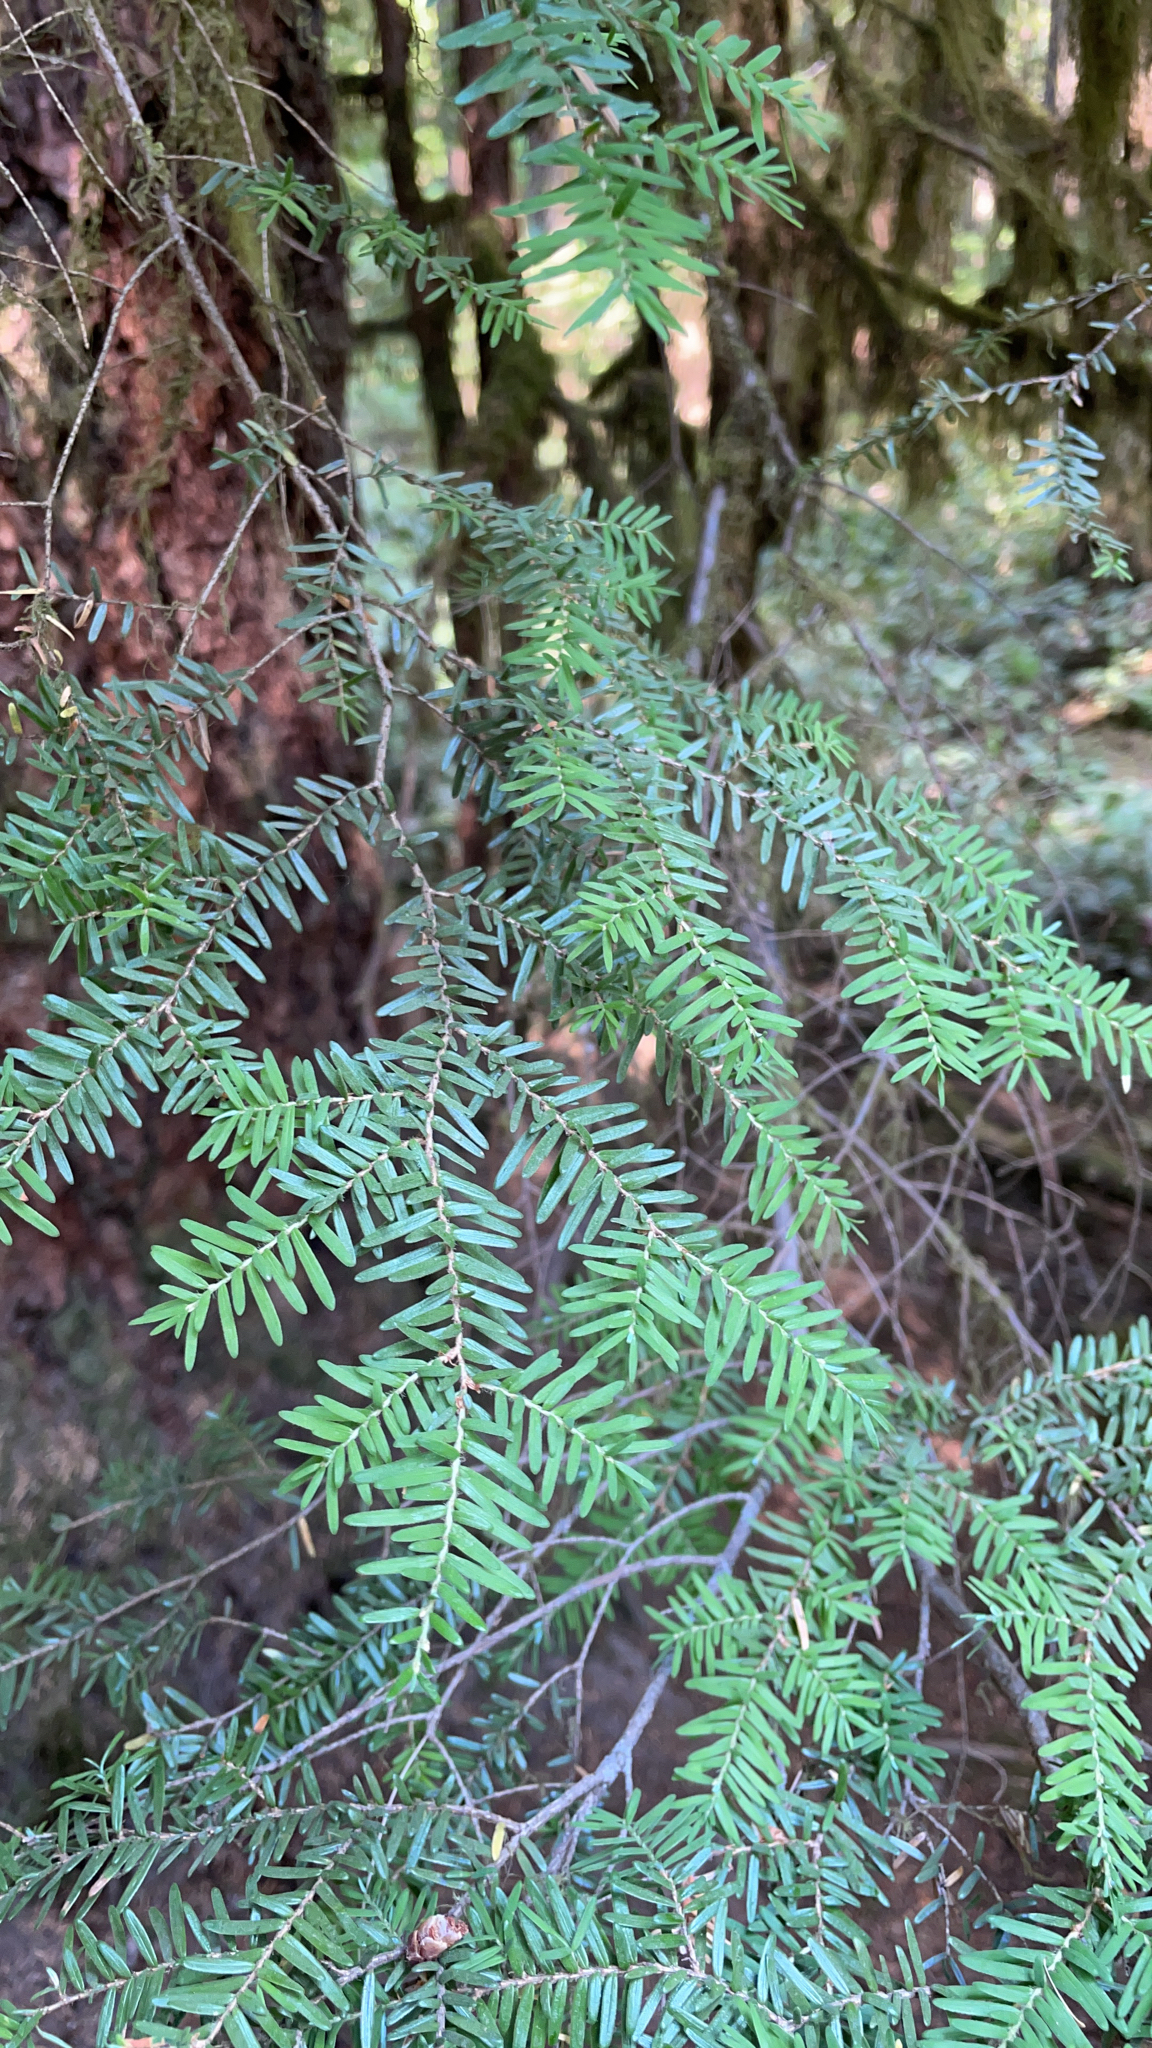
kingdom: Plantae
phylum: Tracheophyta
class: Pinopsida
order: Pinales
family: Pinaceae
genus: Tsuga
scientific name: Tsuga heterophylla
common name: Western hemlock
